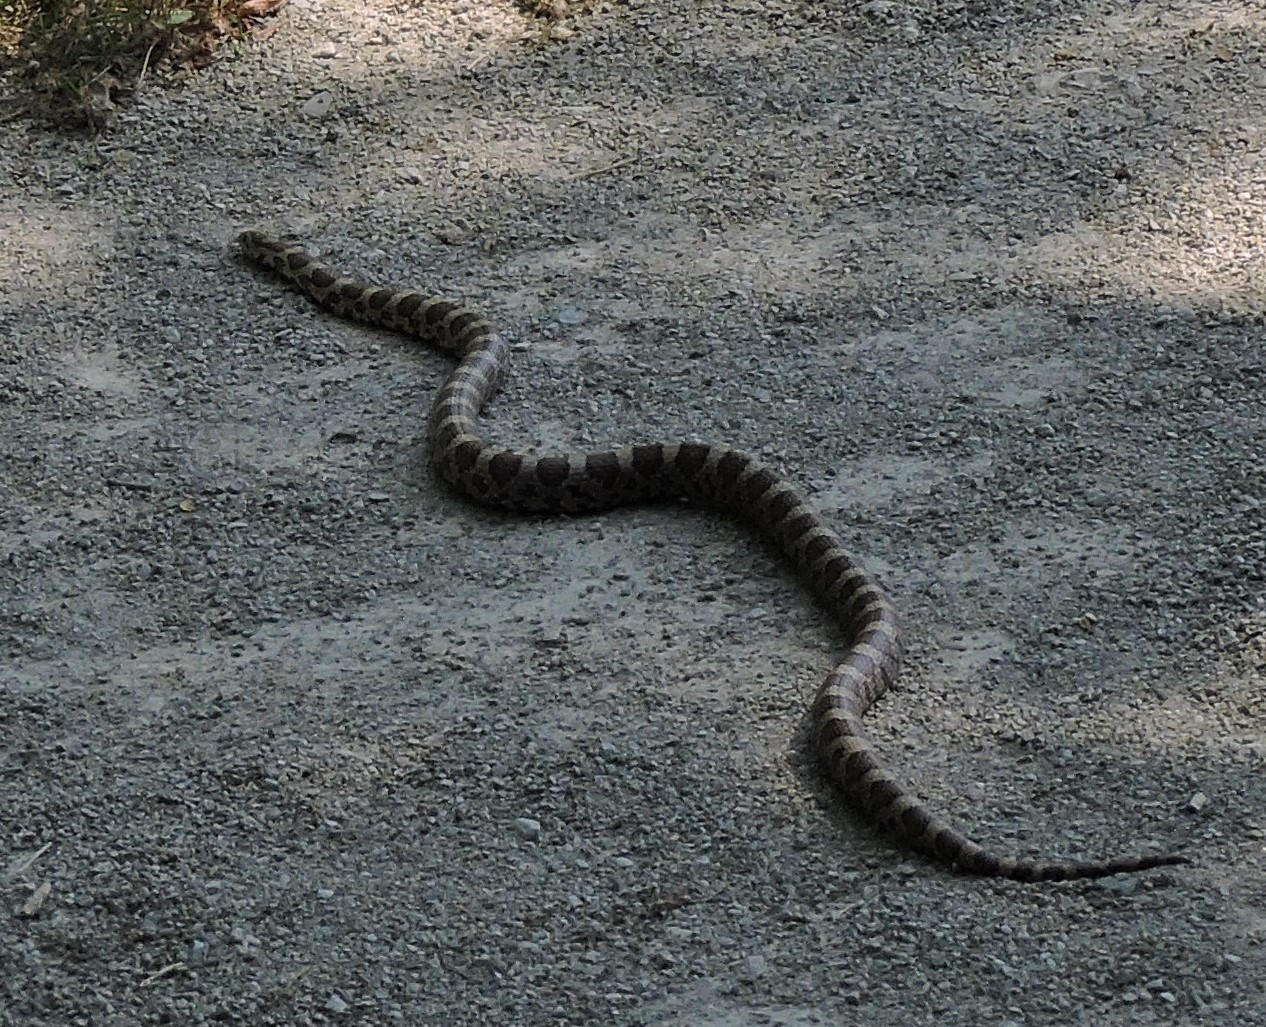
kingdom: Animalia
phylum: Chordata
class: Squamata
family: Colubridae
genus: Lampropeltis
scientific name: Lampropeltis triangulum
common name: Eastern milksnake
